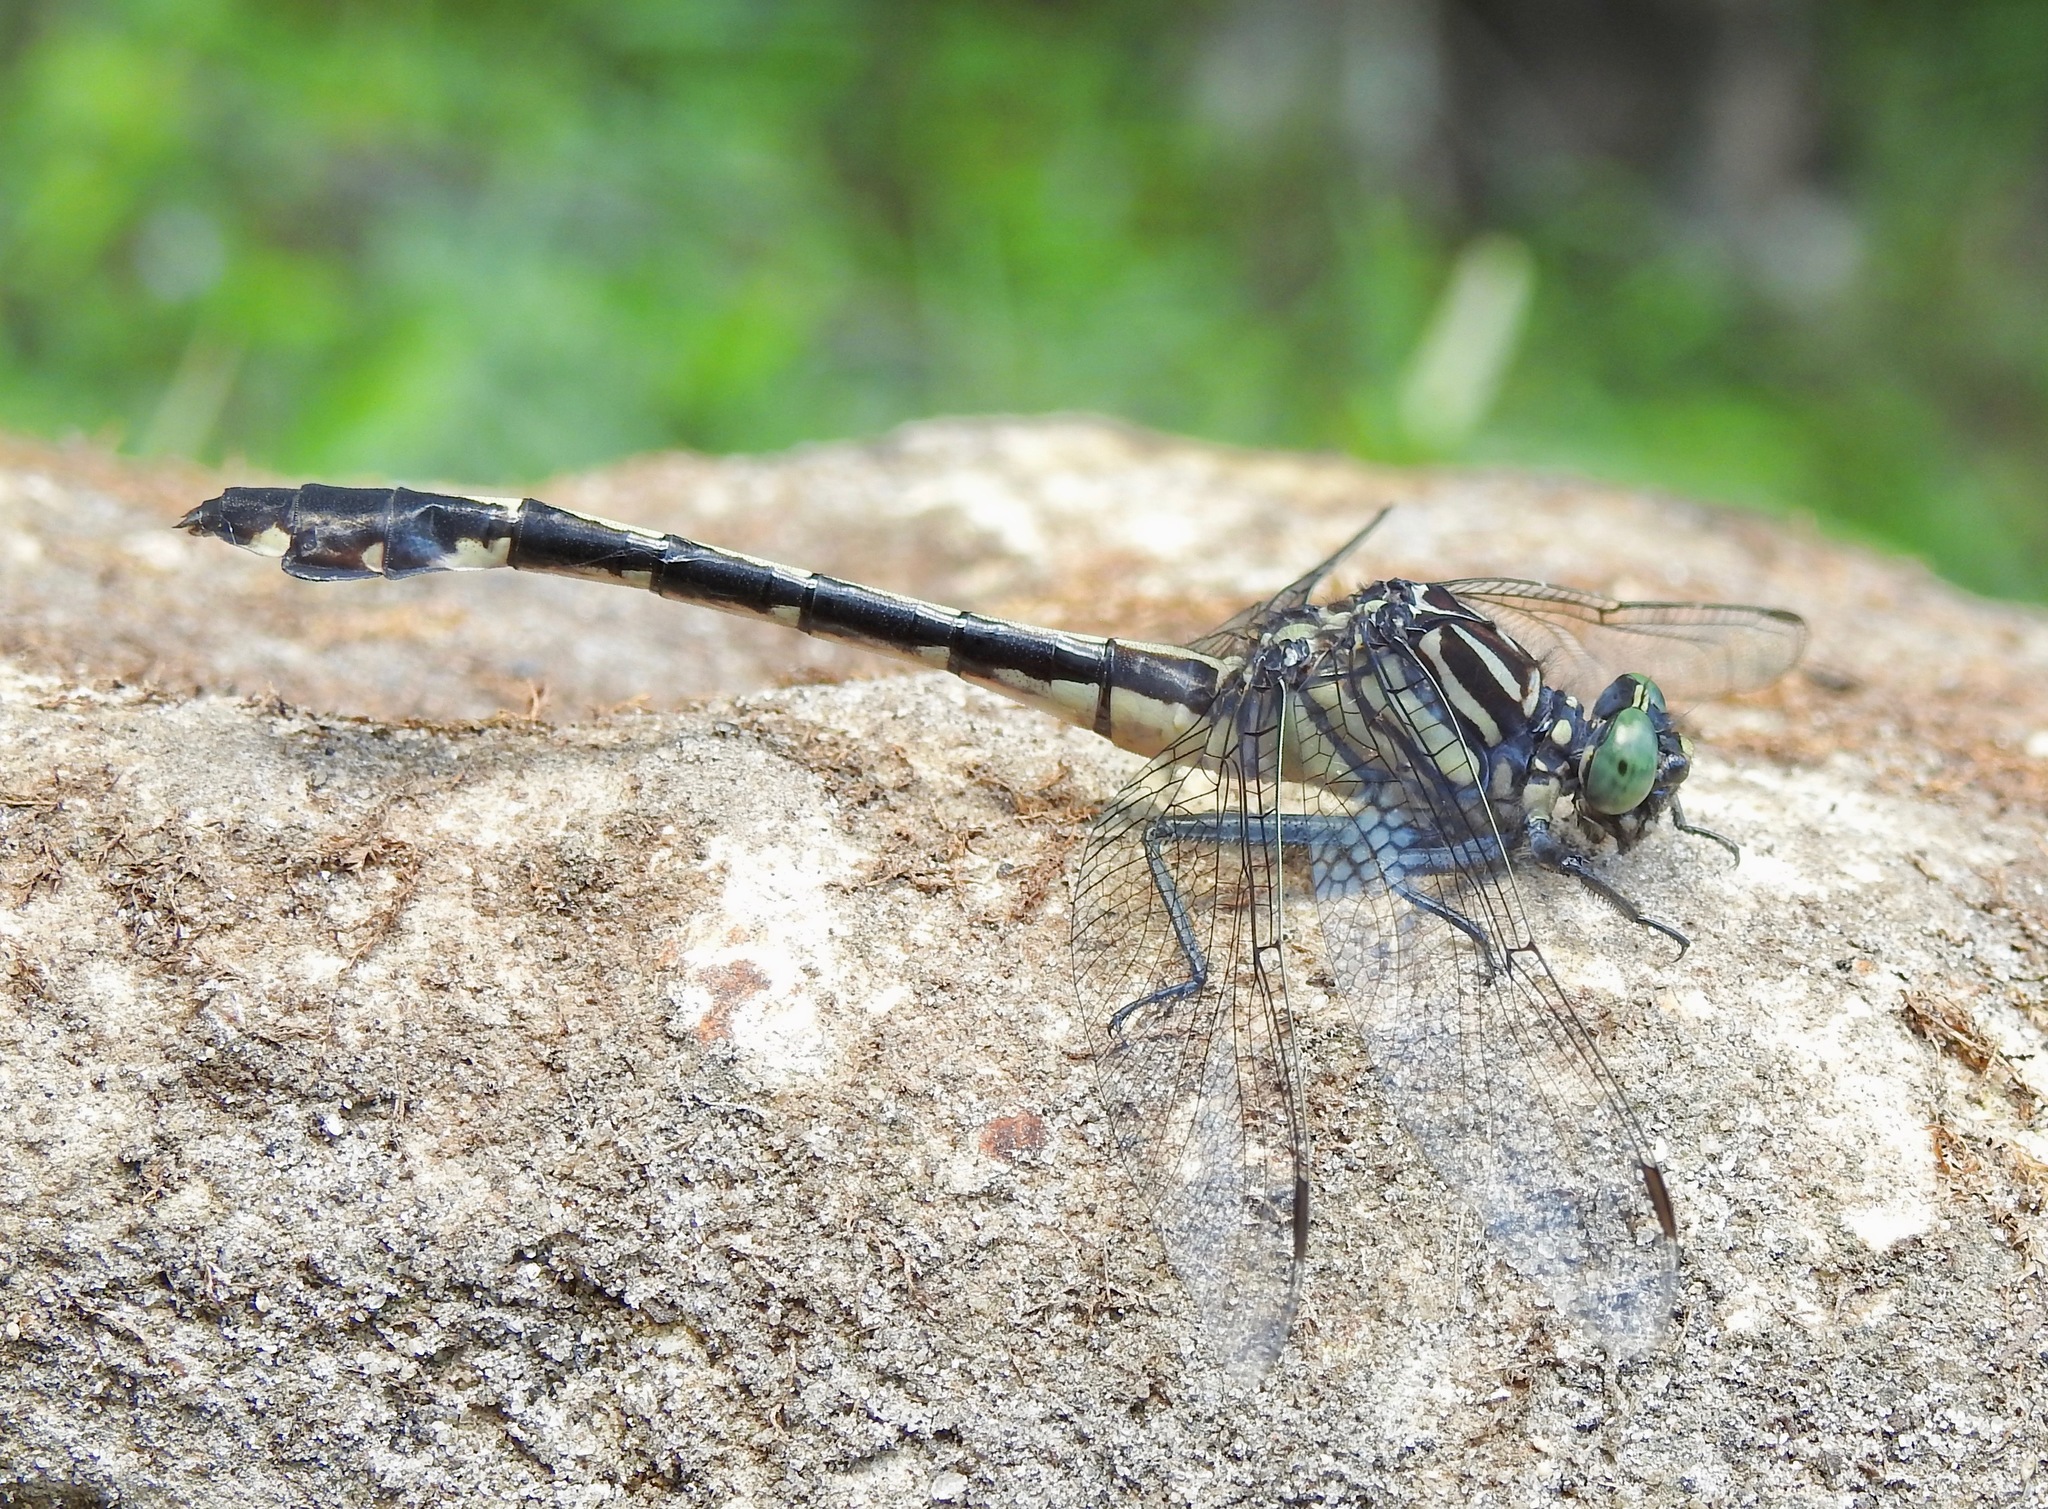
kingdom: Animalia
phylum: Arthropoda
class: Insecta
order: Odonata
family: Gomphidae
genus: Gomphurus
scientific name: Gomphurus dilatatus
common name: Blackwater clubtail
